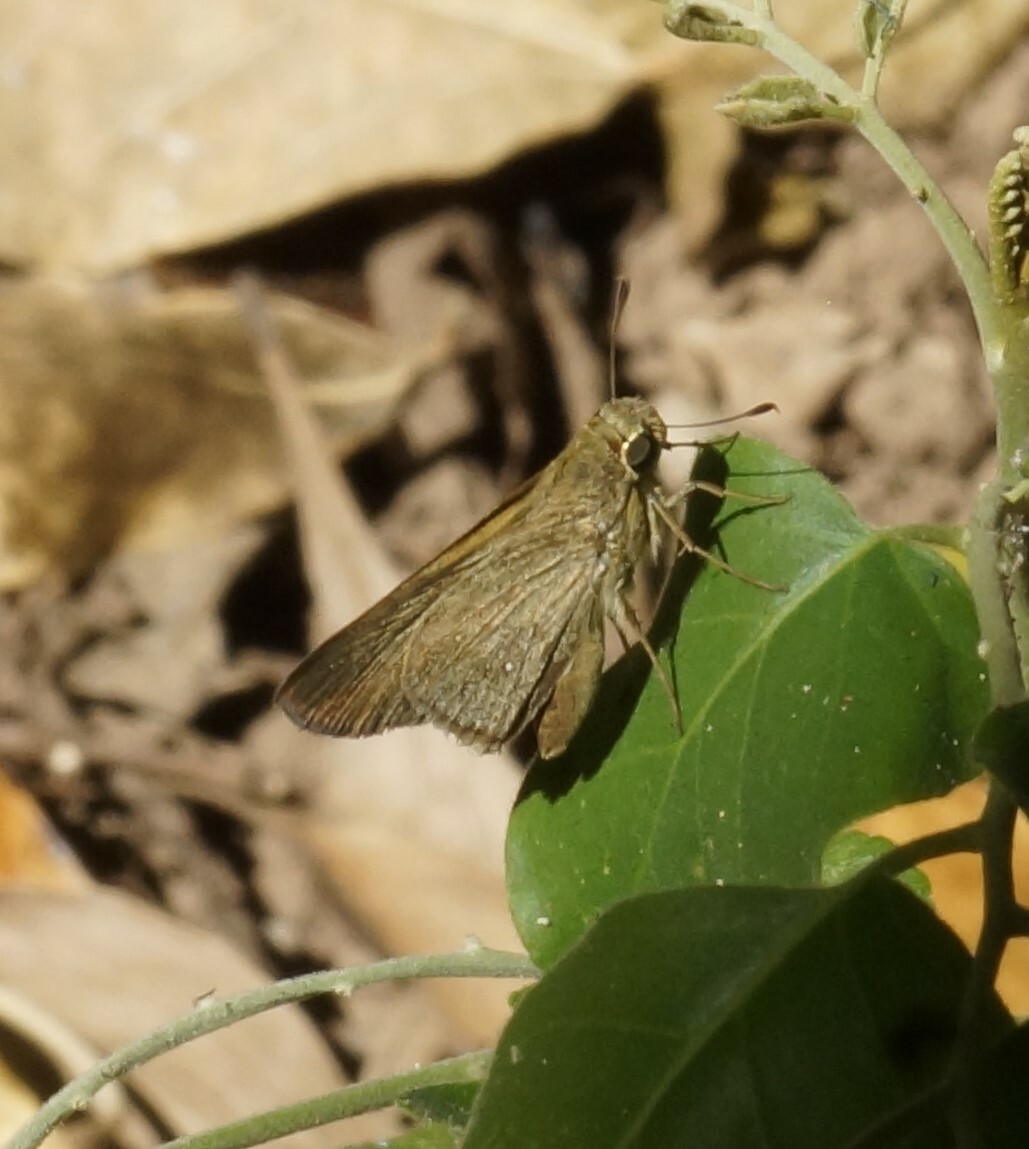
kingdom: Animalia
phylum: Arthropoda
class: Insecta
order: Lepidoptera
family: Hesperiidae
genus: Pelopidas
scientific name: Pelopidas lyelli
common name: Lyell's swift
